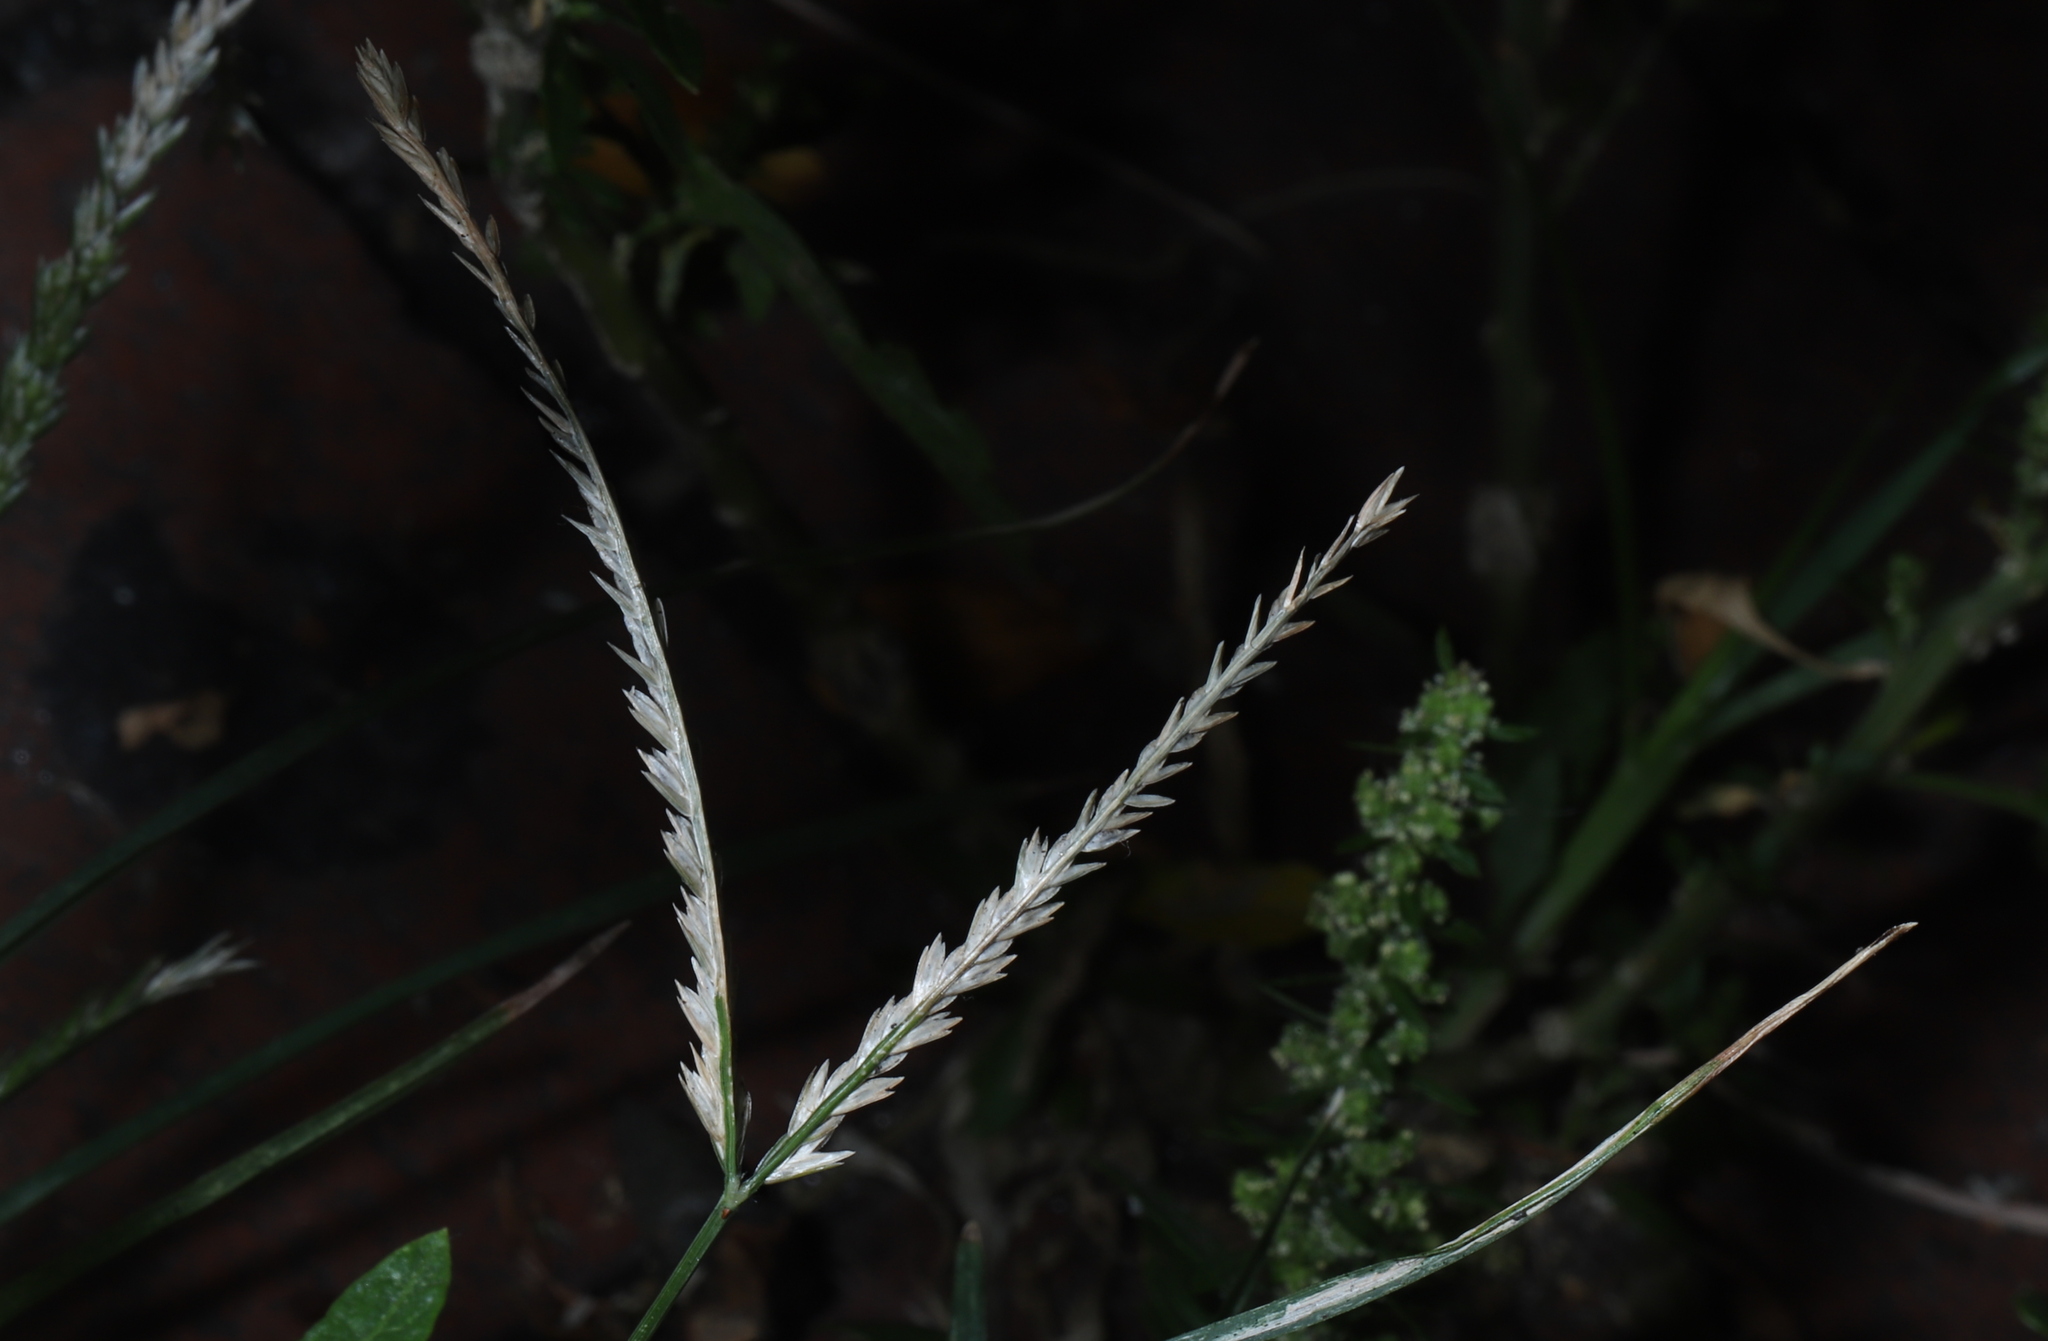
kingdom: Plantae
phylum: Tracheophyta
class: Liliopsida
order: Poales
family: Poaceae
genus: Eleusine
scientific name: Eleusine indica
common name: Yard-grass
